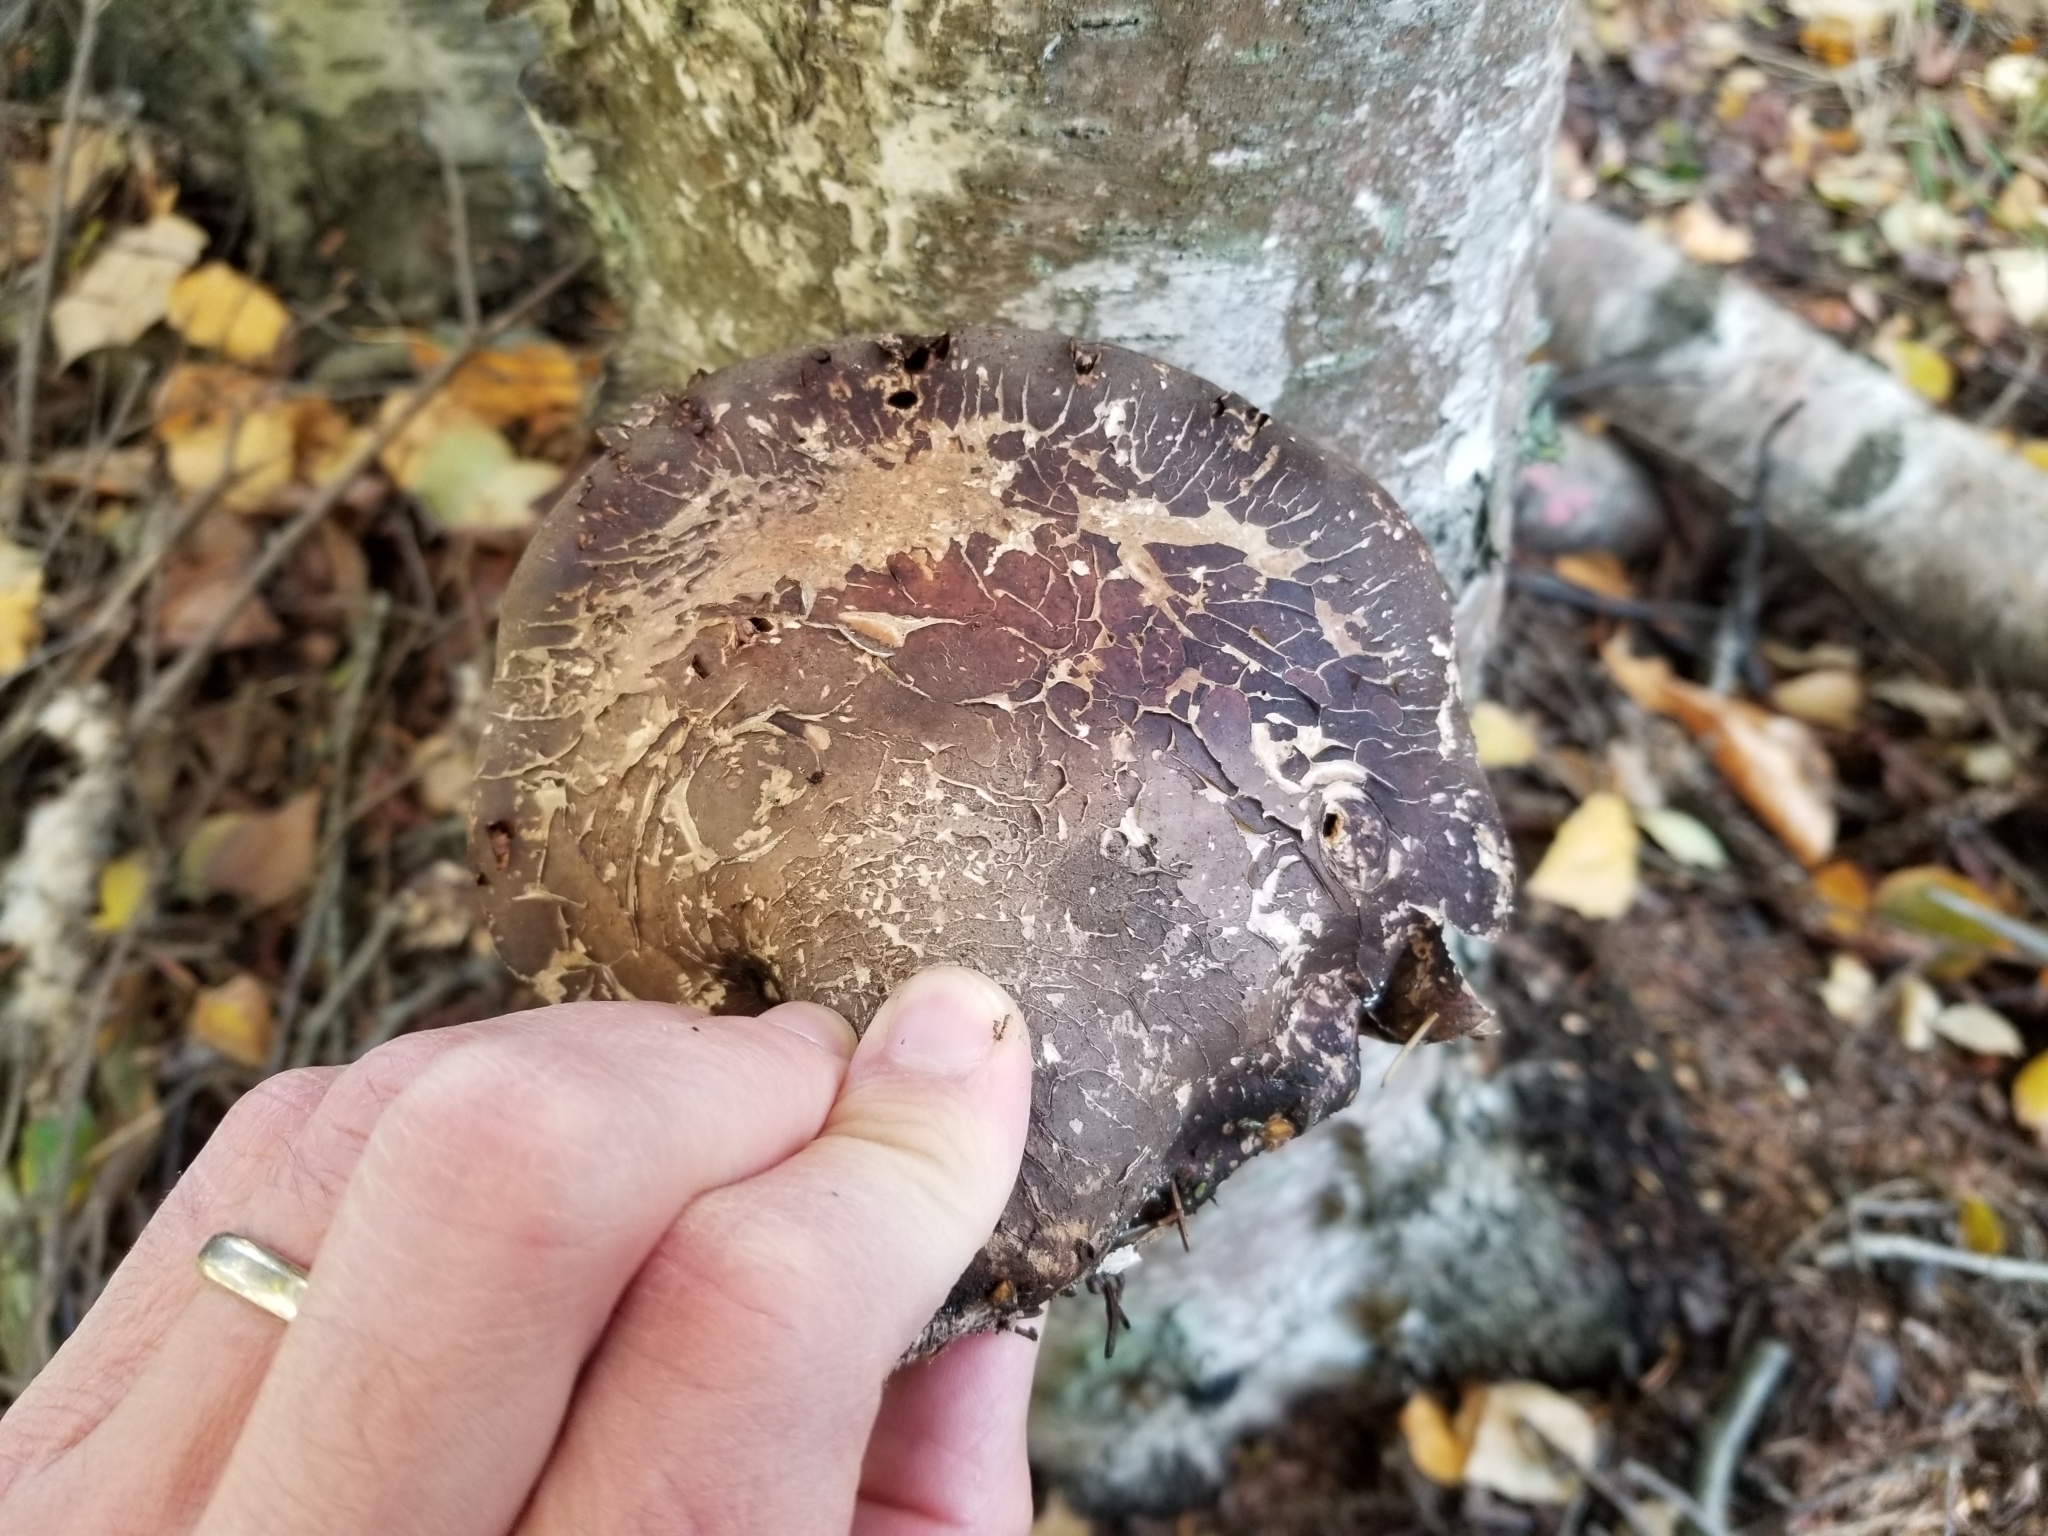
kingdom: Fungi
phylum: Basidiomycota
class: Agaricomycetes
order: Polyporales
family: Fomitopsidaceae
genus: Fomitopsis
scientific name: Fomitopsis betulina
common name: Birch polypore
